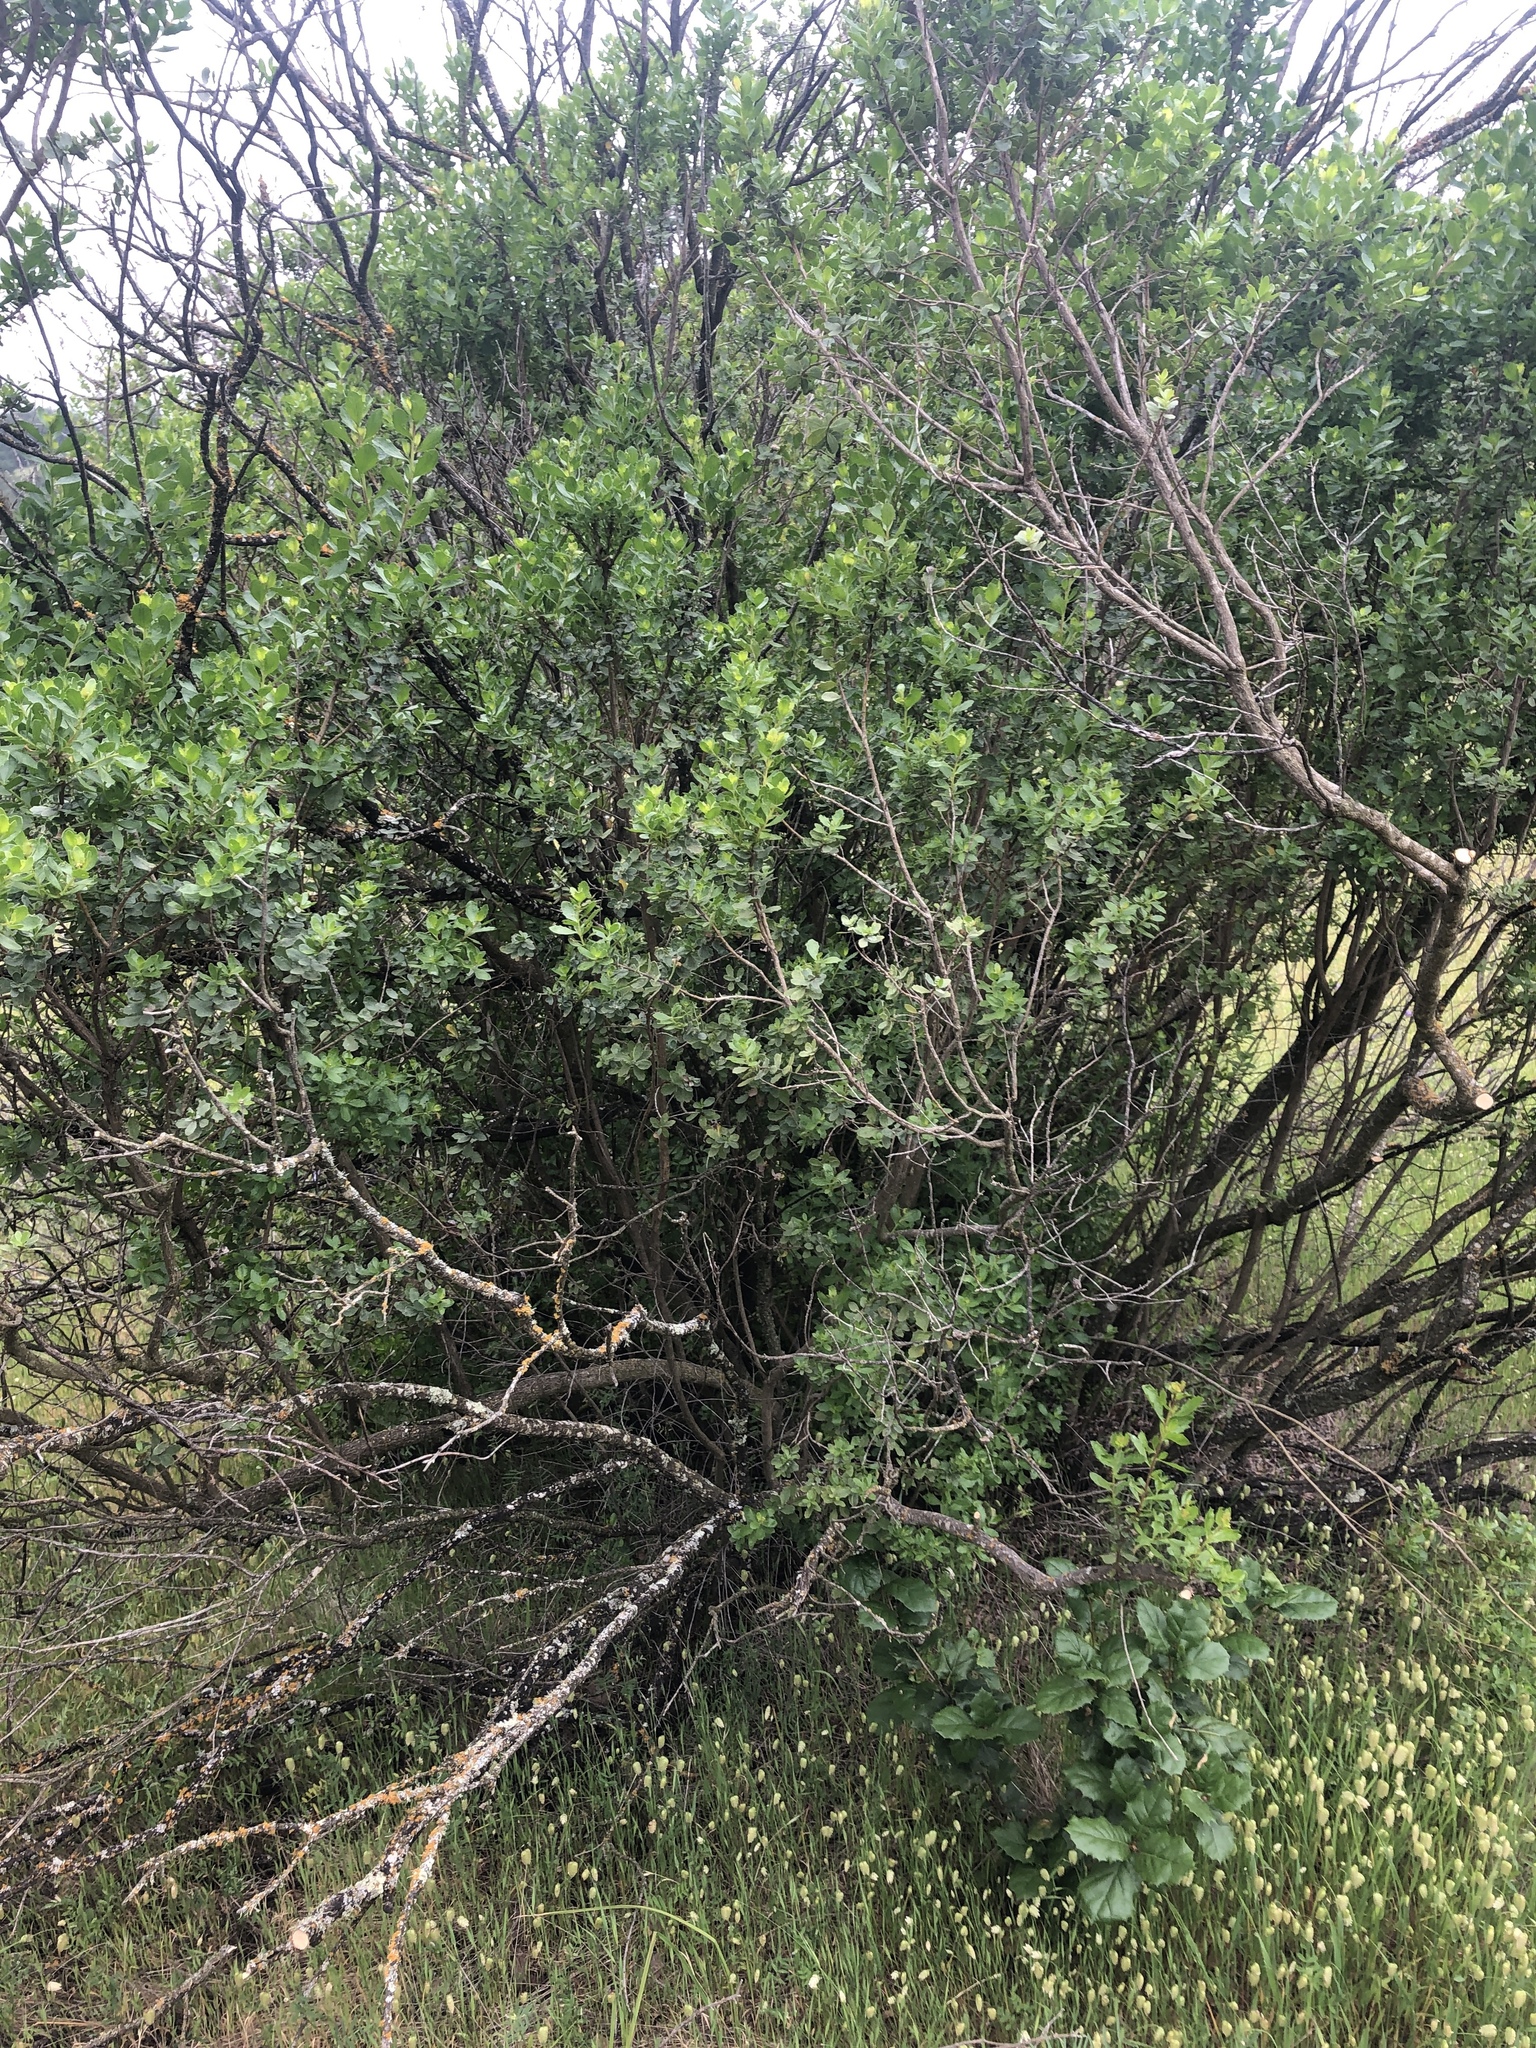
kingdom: Plantae
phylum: Tracheophyta
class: Magnoliopsida
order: Asterales
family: Asteraceae
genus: Baccharis
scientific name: Baccharis pilularis
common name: Coyotebrush
